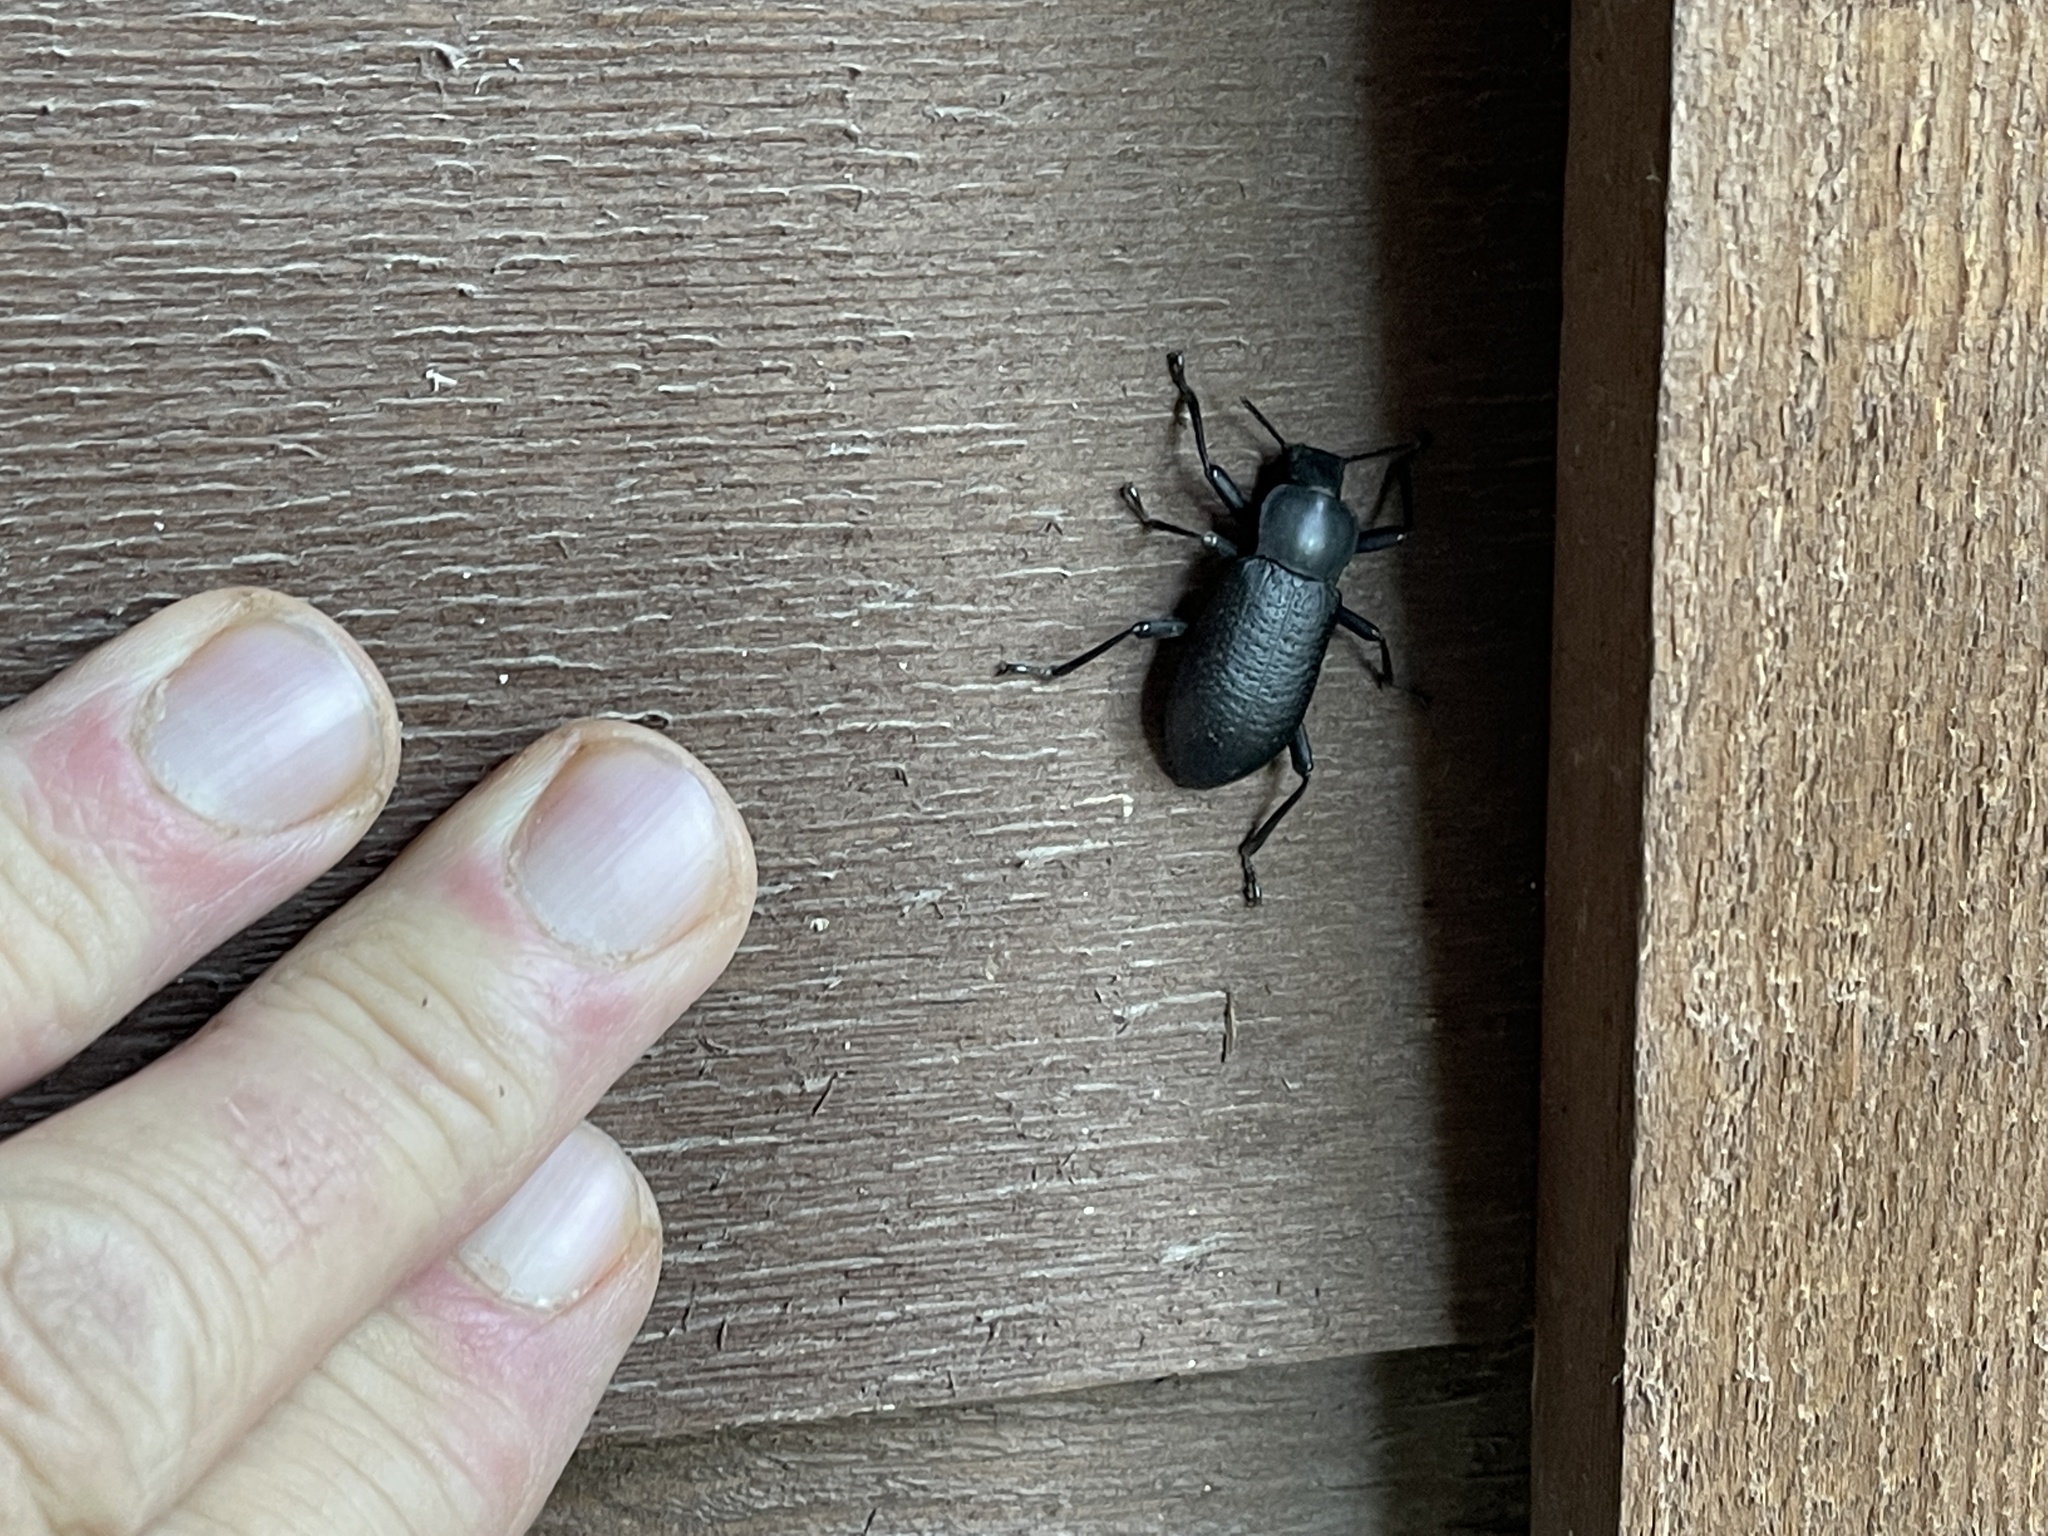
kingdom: Animalia
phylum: Arthropoda
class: Insecta
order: Coleoptera
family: Tenebrionidae
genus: Iphthiminus
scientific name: Iphthiminus lewisii
